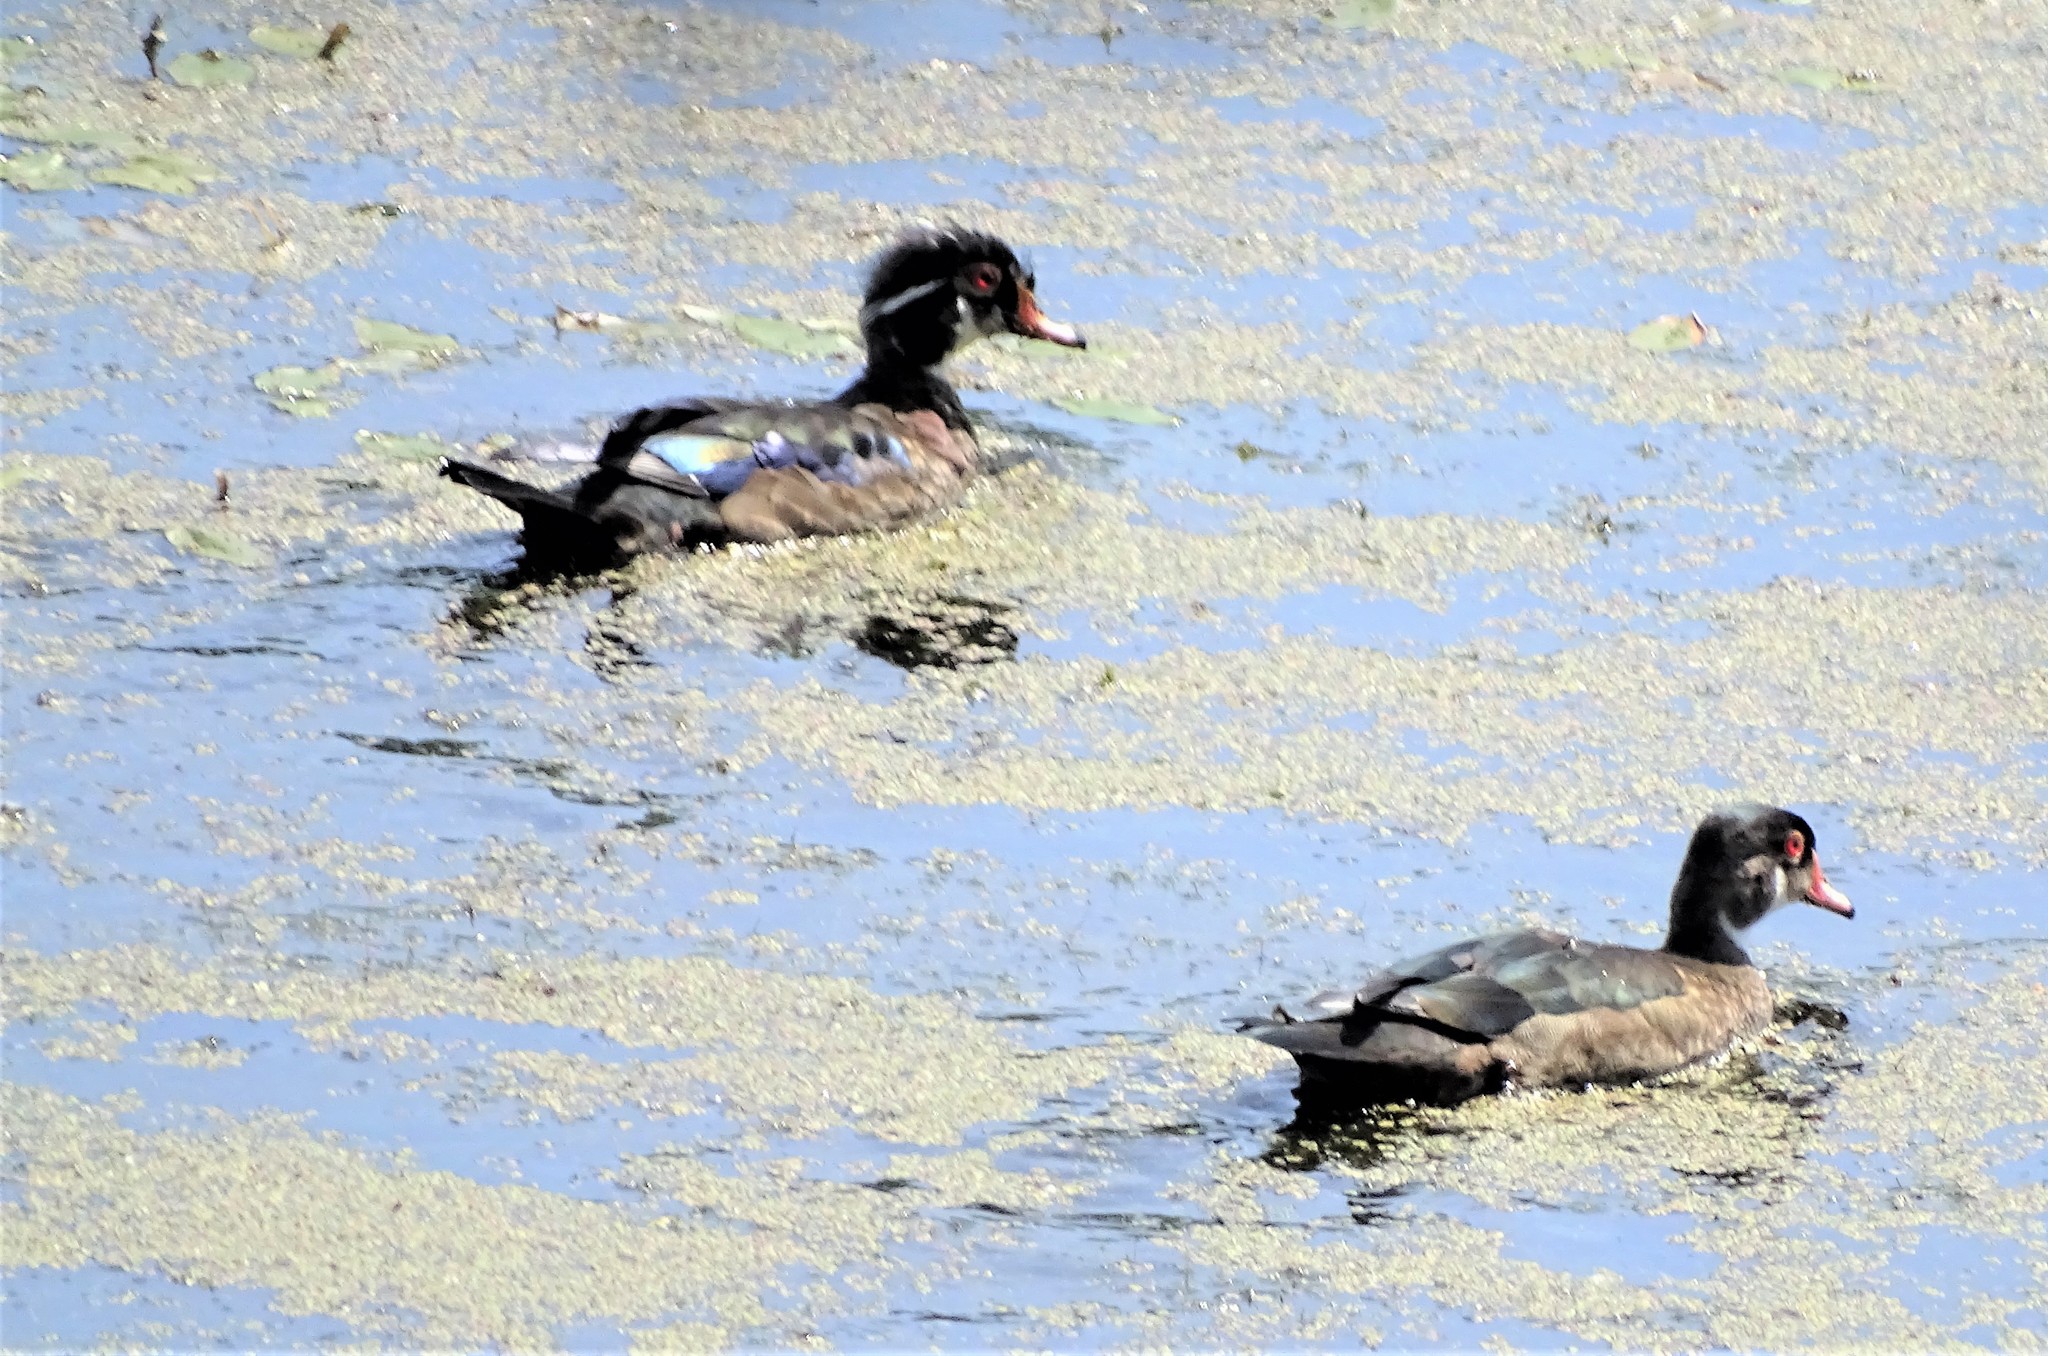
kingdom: Animalia
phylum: Chordata
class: Aves
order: Anseriformes
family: Anatidae
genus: Aix
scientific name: Aix sponsa
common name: Wood duck
